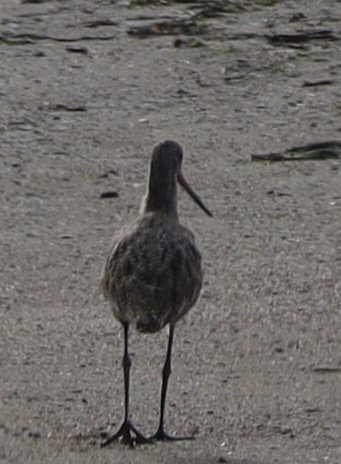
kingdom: Animalia
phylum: Chordata
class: Aves
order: Charadriiformes
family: Scolopacidae
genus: Limosa
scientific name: Limosa fedoa
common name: Marbled godwit
